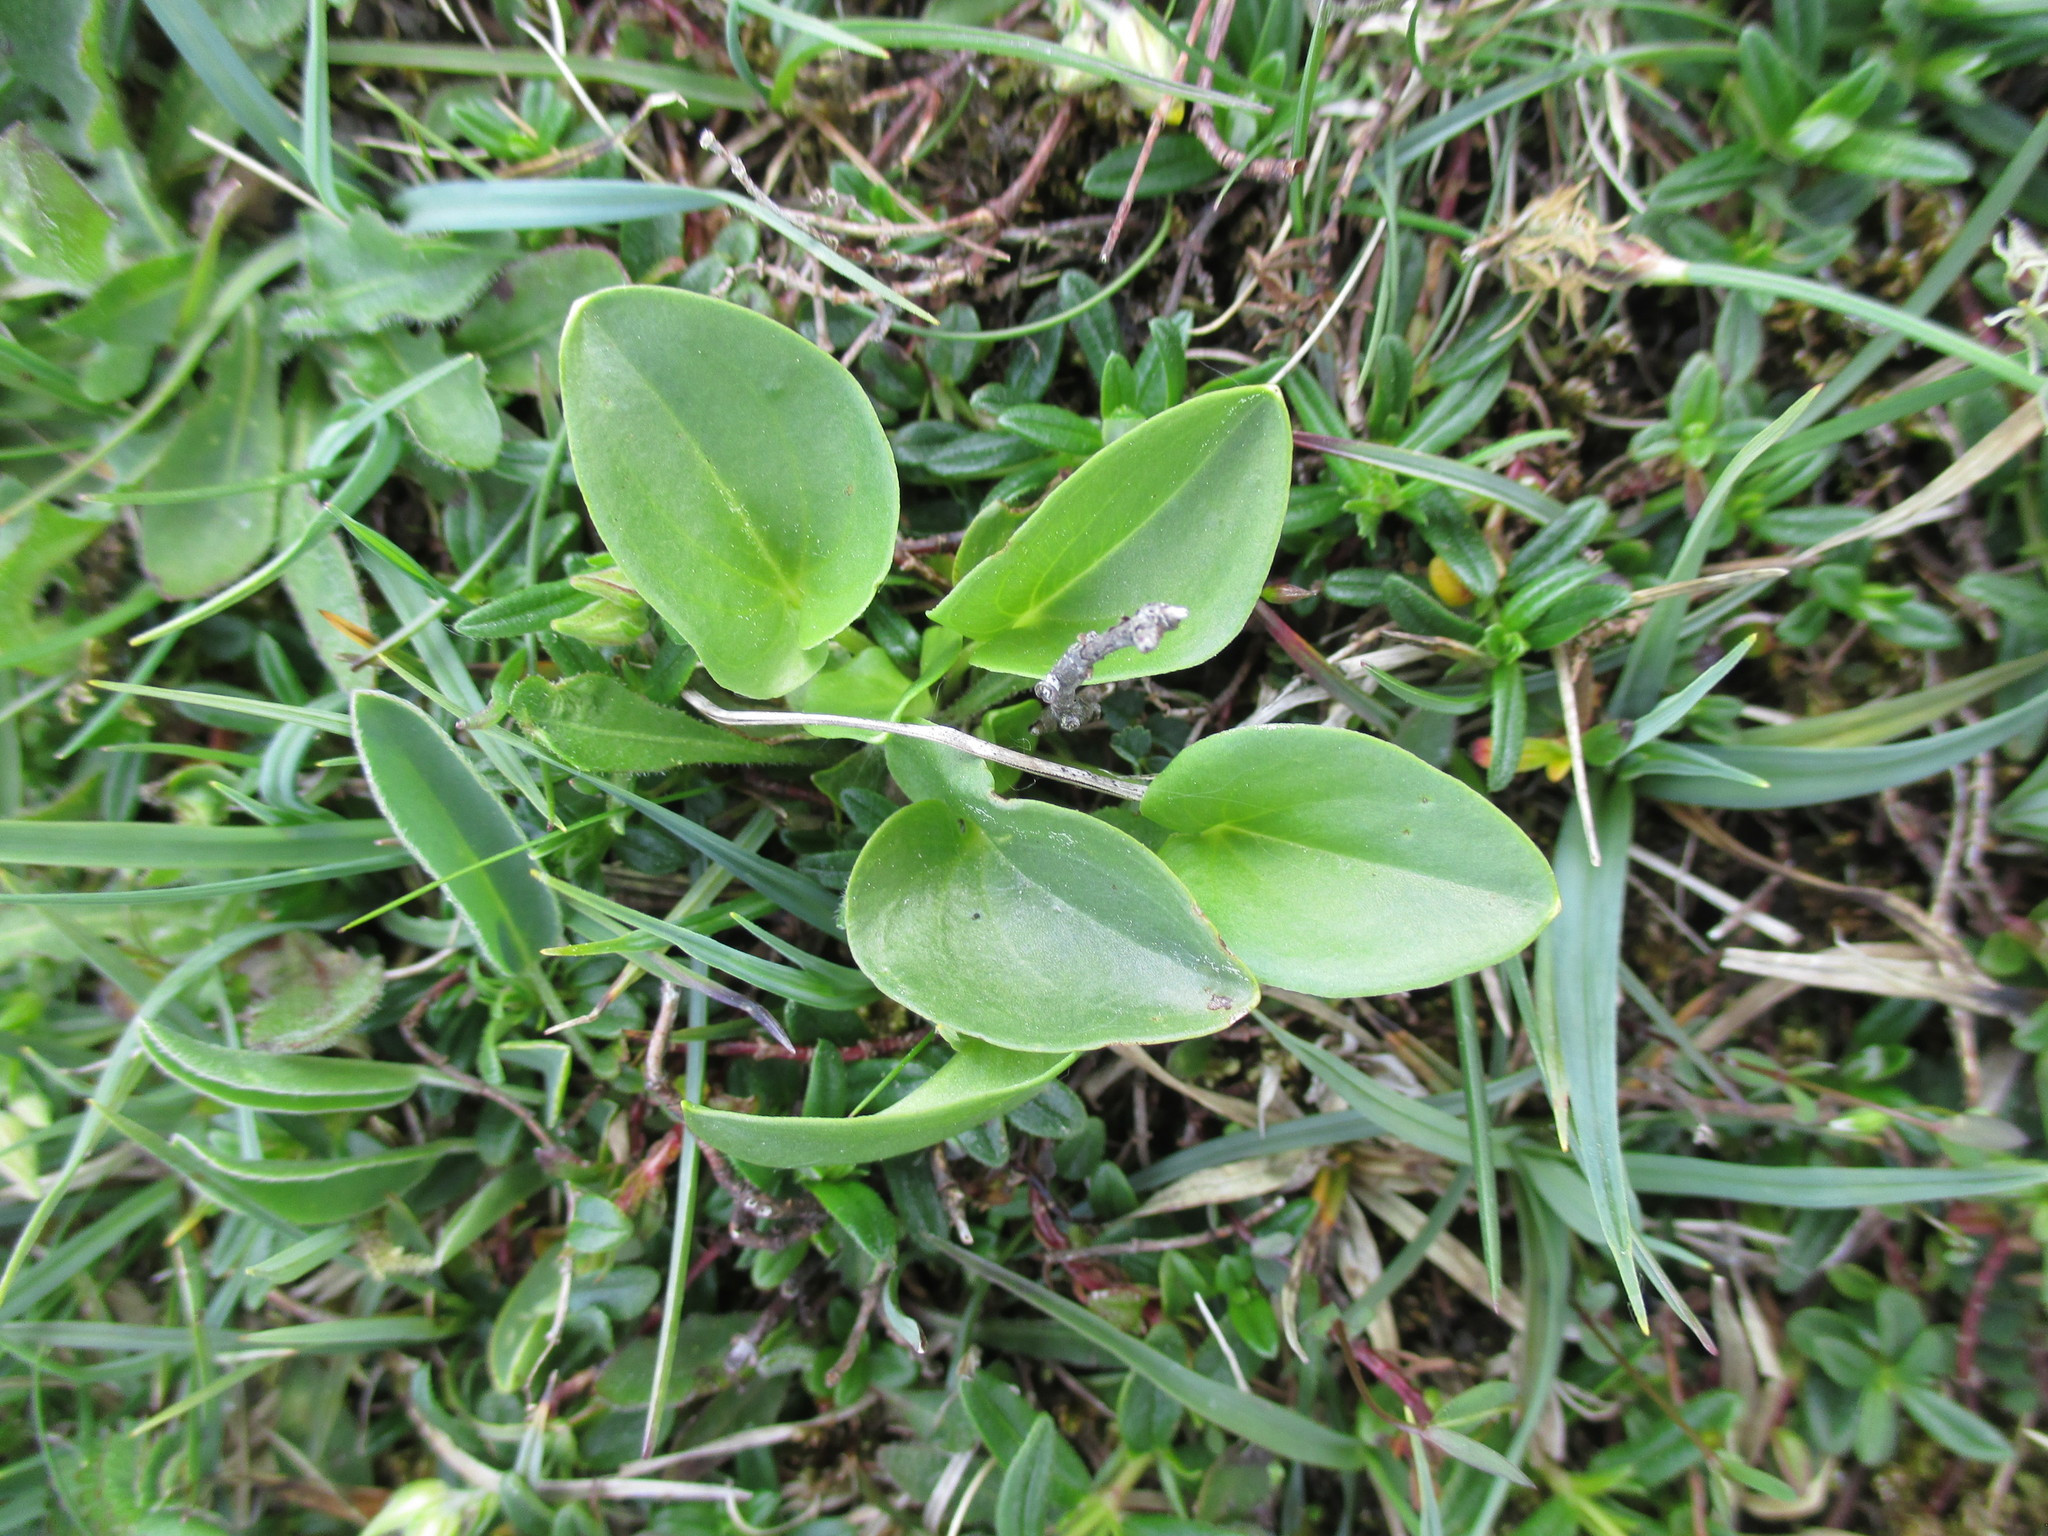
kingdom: Plantae
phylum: Tracheophyta
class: Magnoliopsida
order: Celastrales
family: Parnassiaceae
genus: Parnassia
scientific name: Parnassia palustris
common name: Grass-of-parnassus
